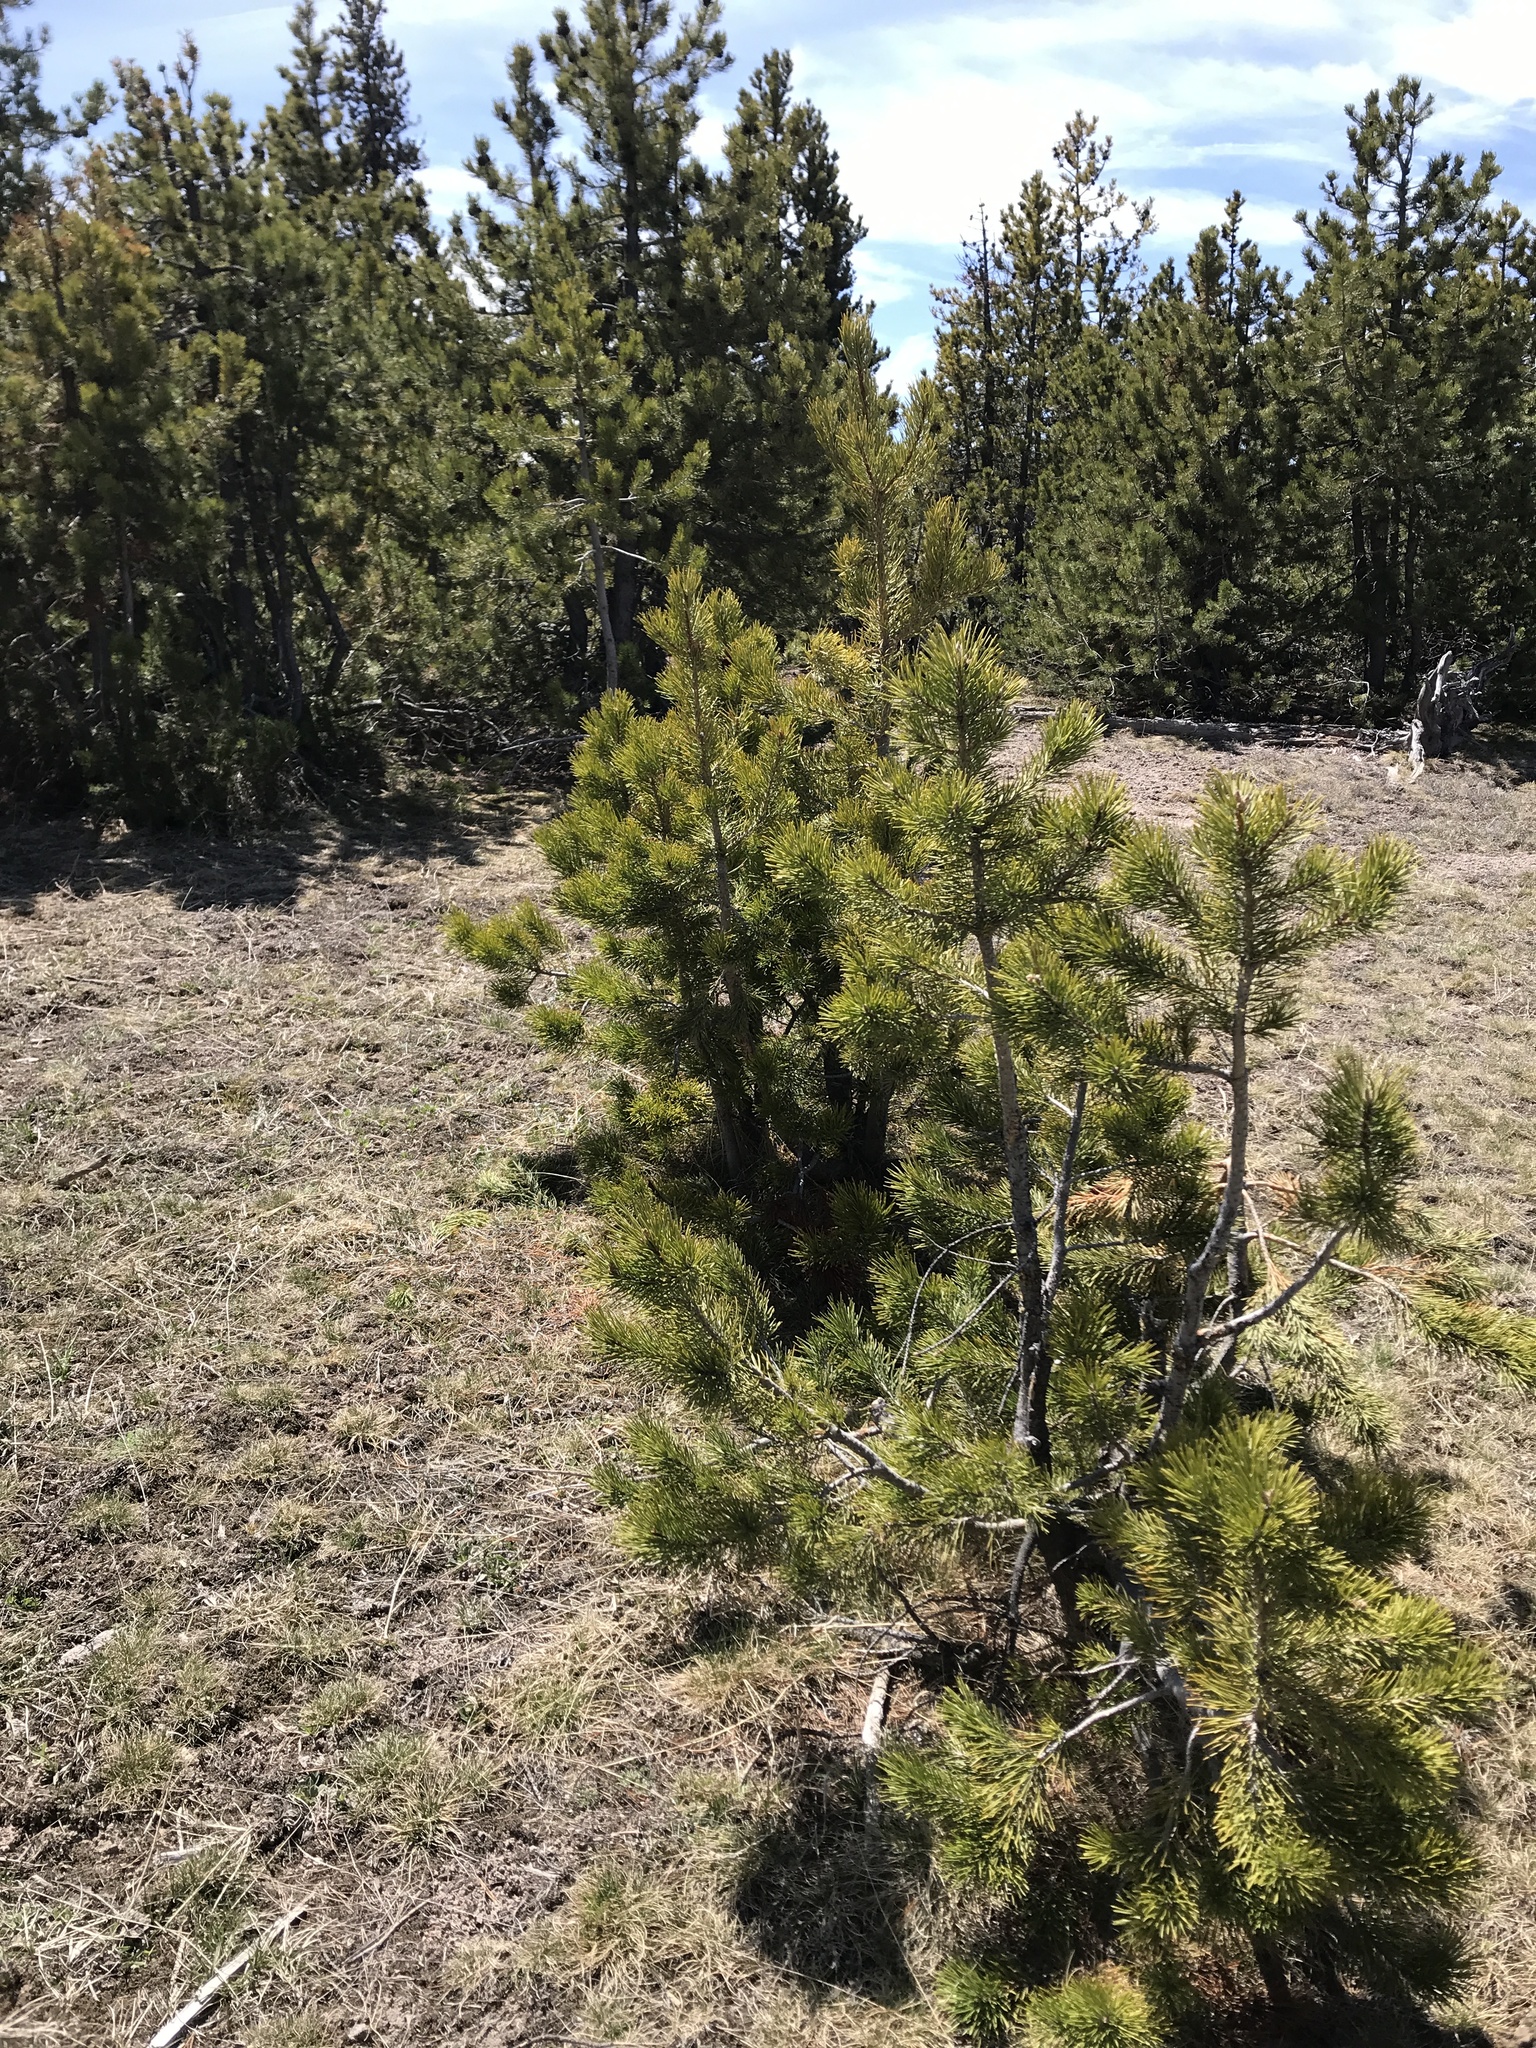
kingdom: Plantae
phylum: Tracheophyta
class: Pinopsida
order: Pinales
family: Pinaceae
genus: Pinus
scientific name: Pinus contorta
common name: Lodgepole pine
